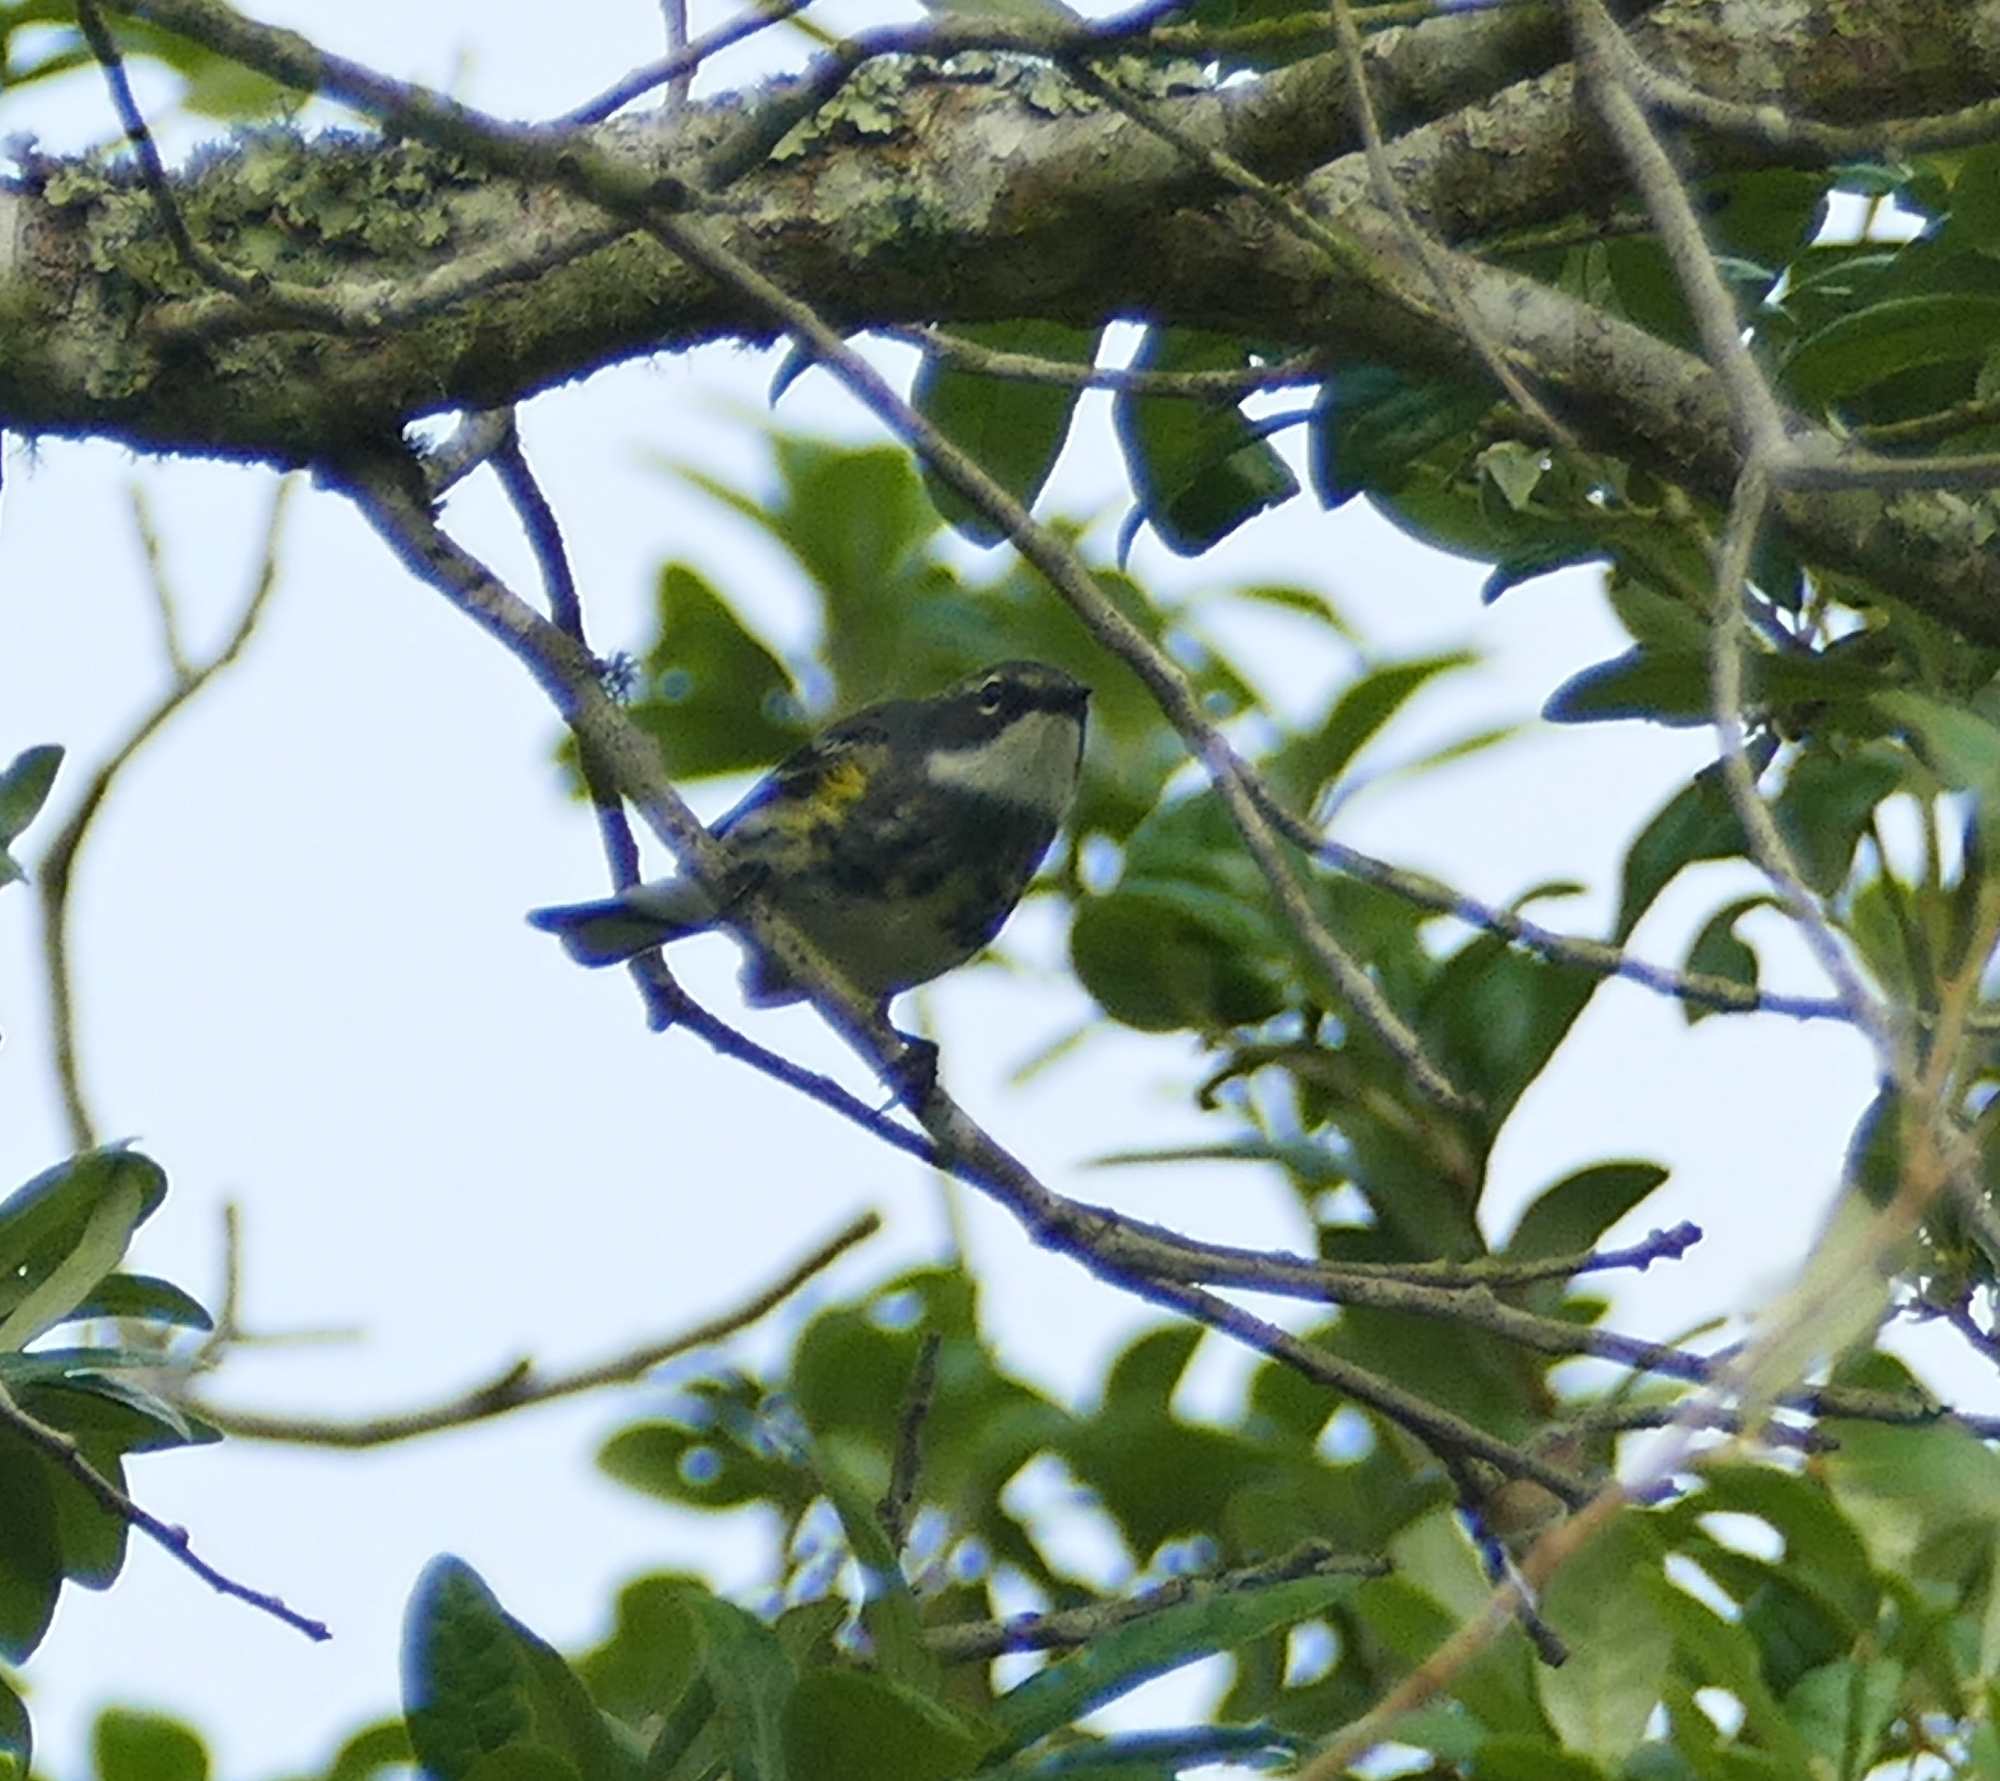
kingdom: Animalia
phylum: Chordata
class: Aves
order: Passeriformes
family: Parulidae
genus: Setophaga
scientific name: Setophaga coronata
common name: Myrtle warbler
